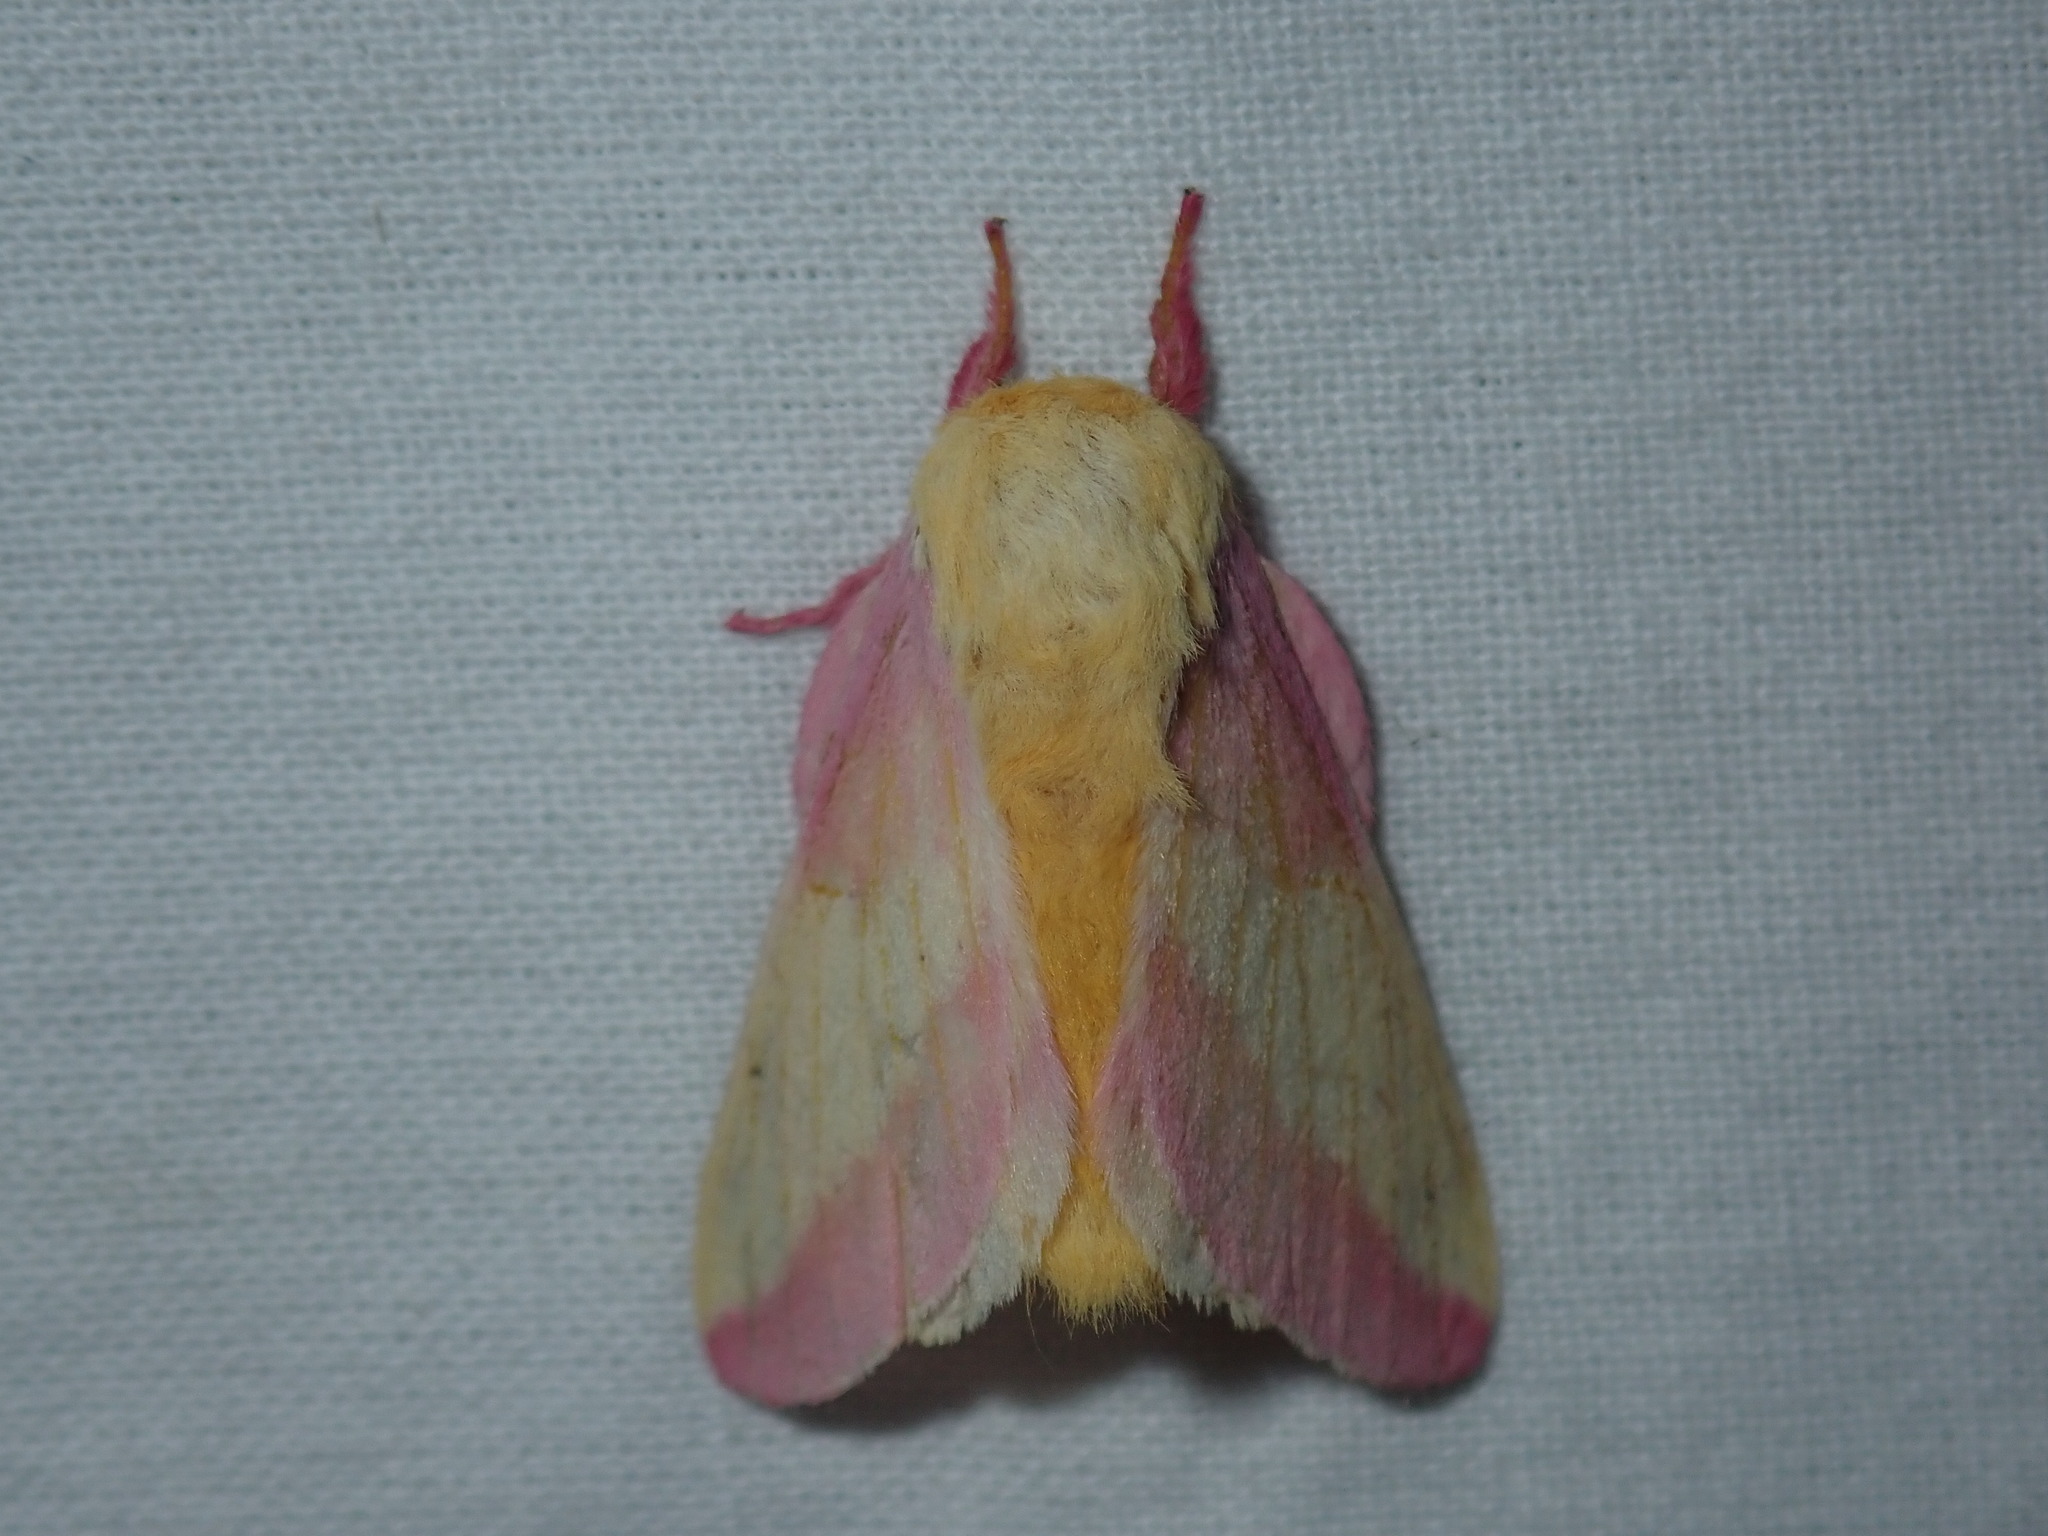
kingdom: Animalia
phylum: Arthropoda
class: Insecta
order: Lepidoptera
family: Saturniidae
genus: Dryocampa
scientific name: Dryocampa rubicunda
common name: Rosy maple moth
